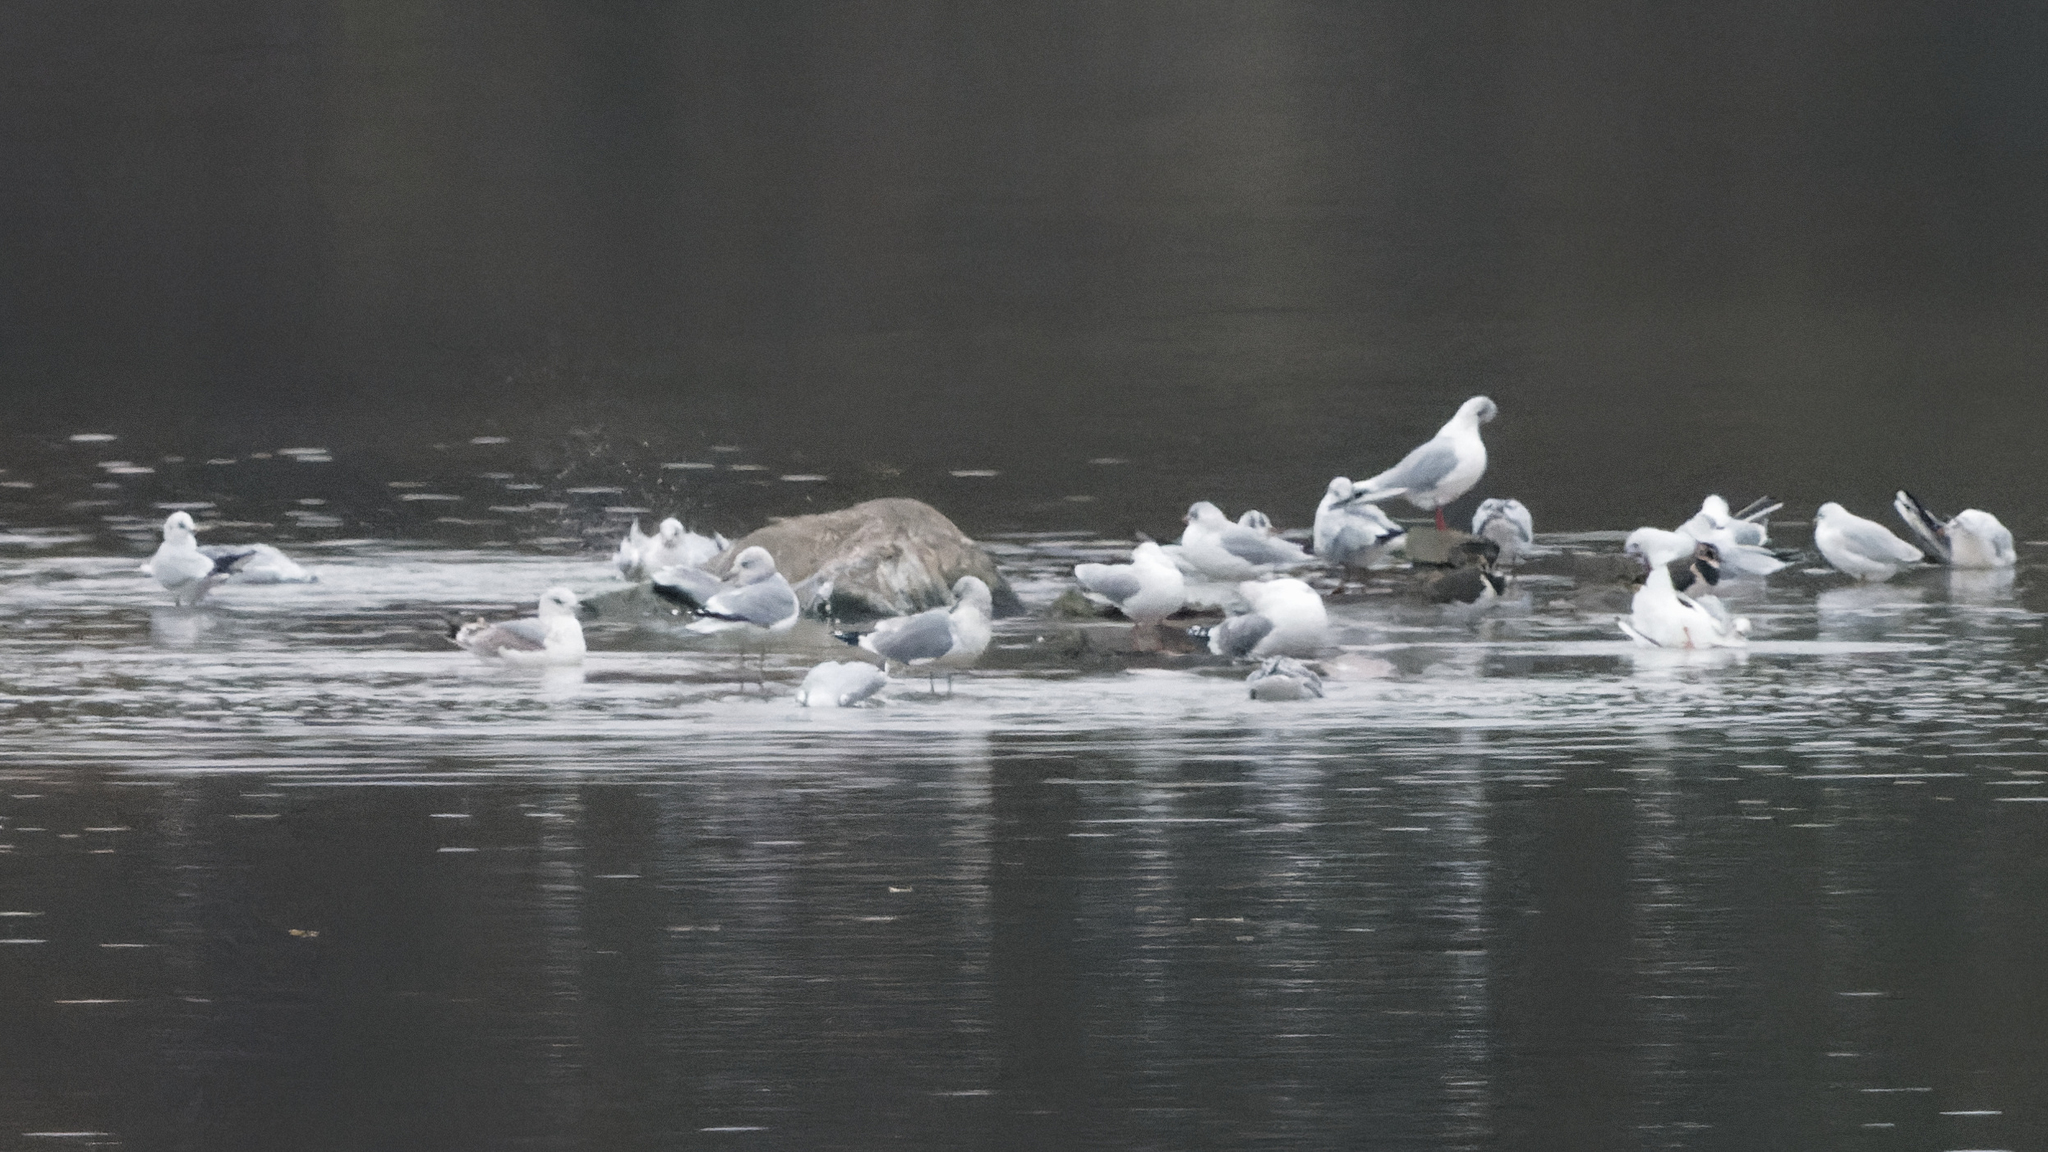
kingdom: Animalia
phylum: Chordata
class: Aves
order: Charadriiformes
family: Laridae
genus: Larus
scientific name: Larus canus
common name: Mew gull
